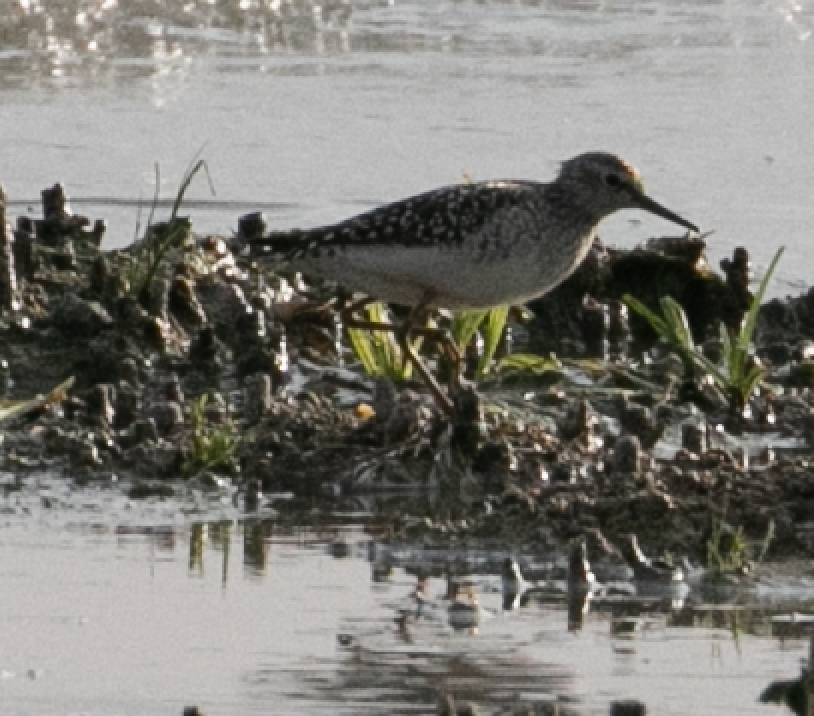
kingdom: Animalia
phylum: Chordata
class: Aves
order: Charadriiformes
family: Scolopacidae
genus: Tringa
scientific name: Tringa glareola
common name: Wood sandpiper
